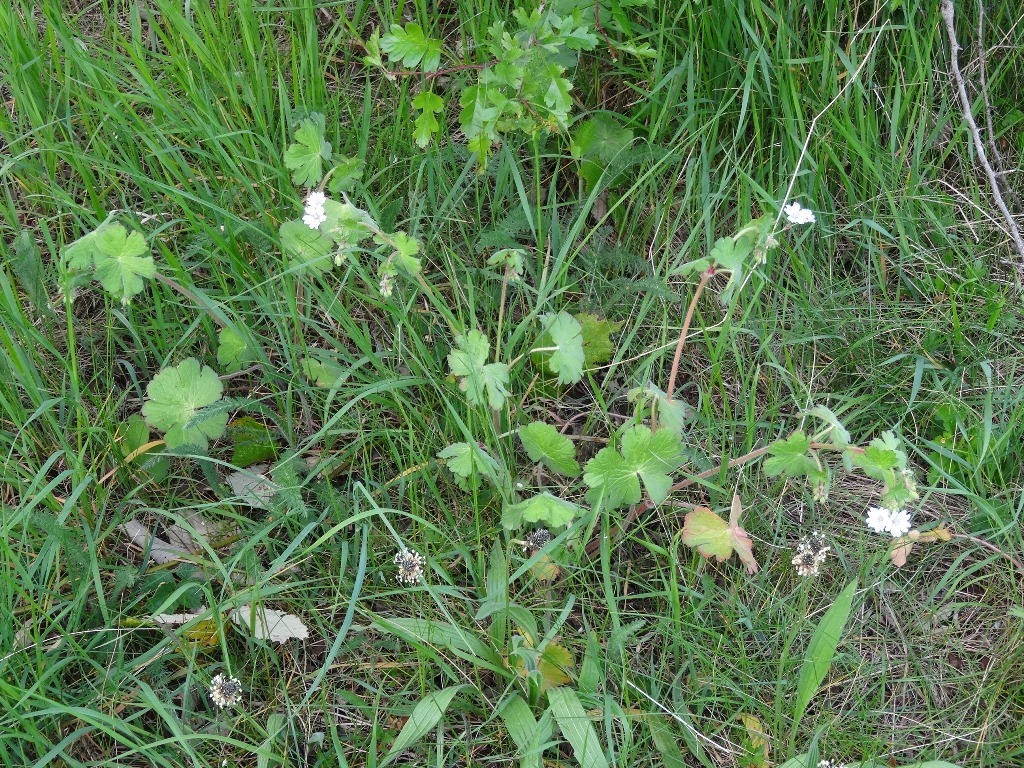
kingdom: Plantae
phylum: Tracheophyta
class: Magnoliopsida
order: Geraniales
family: Geraniaceae
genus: Geranium
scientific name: Geranium pyrenaicum
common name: Hedgerow crane's-bill
